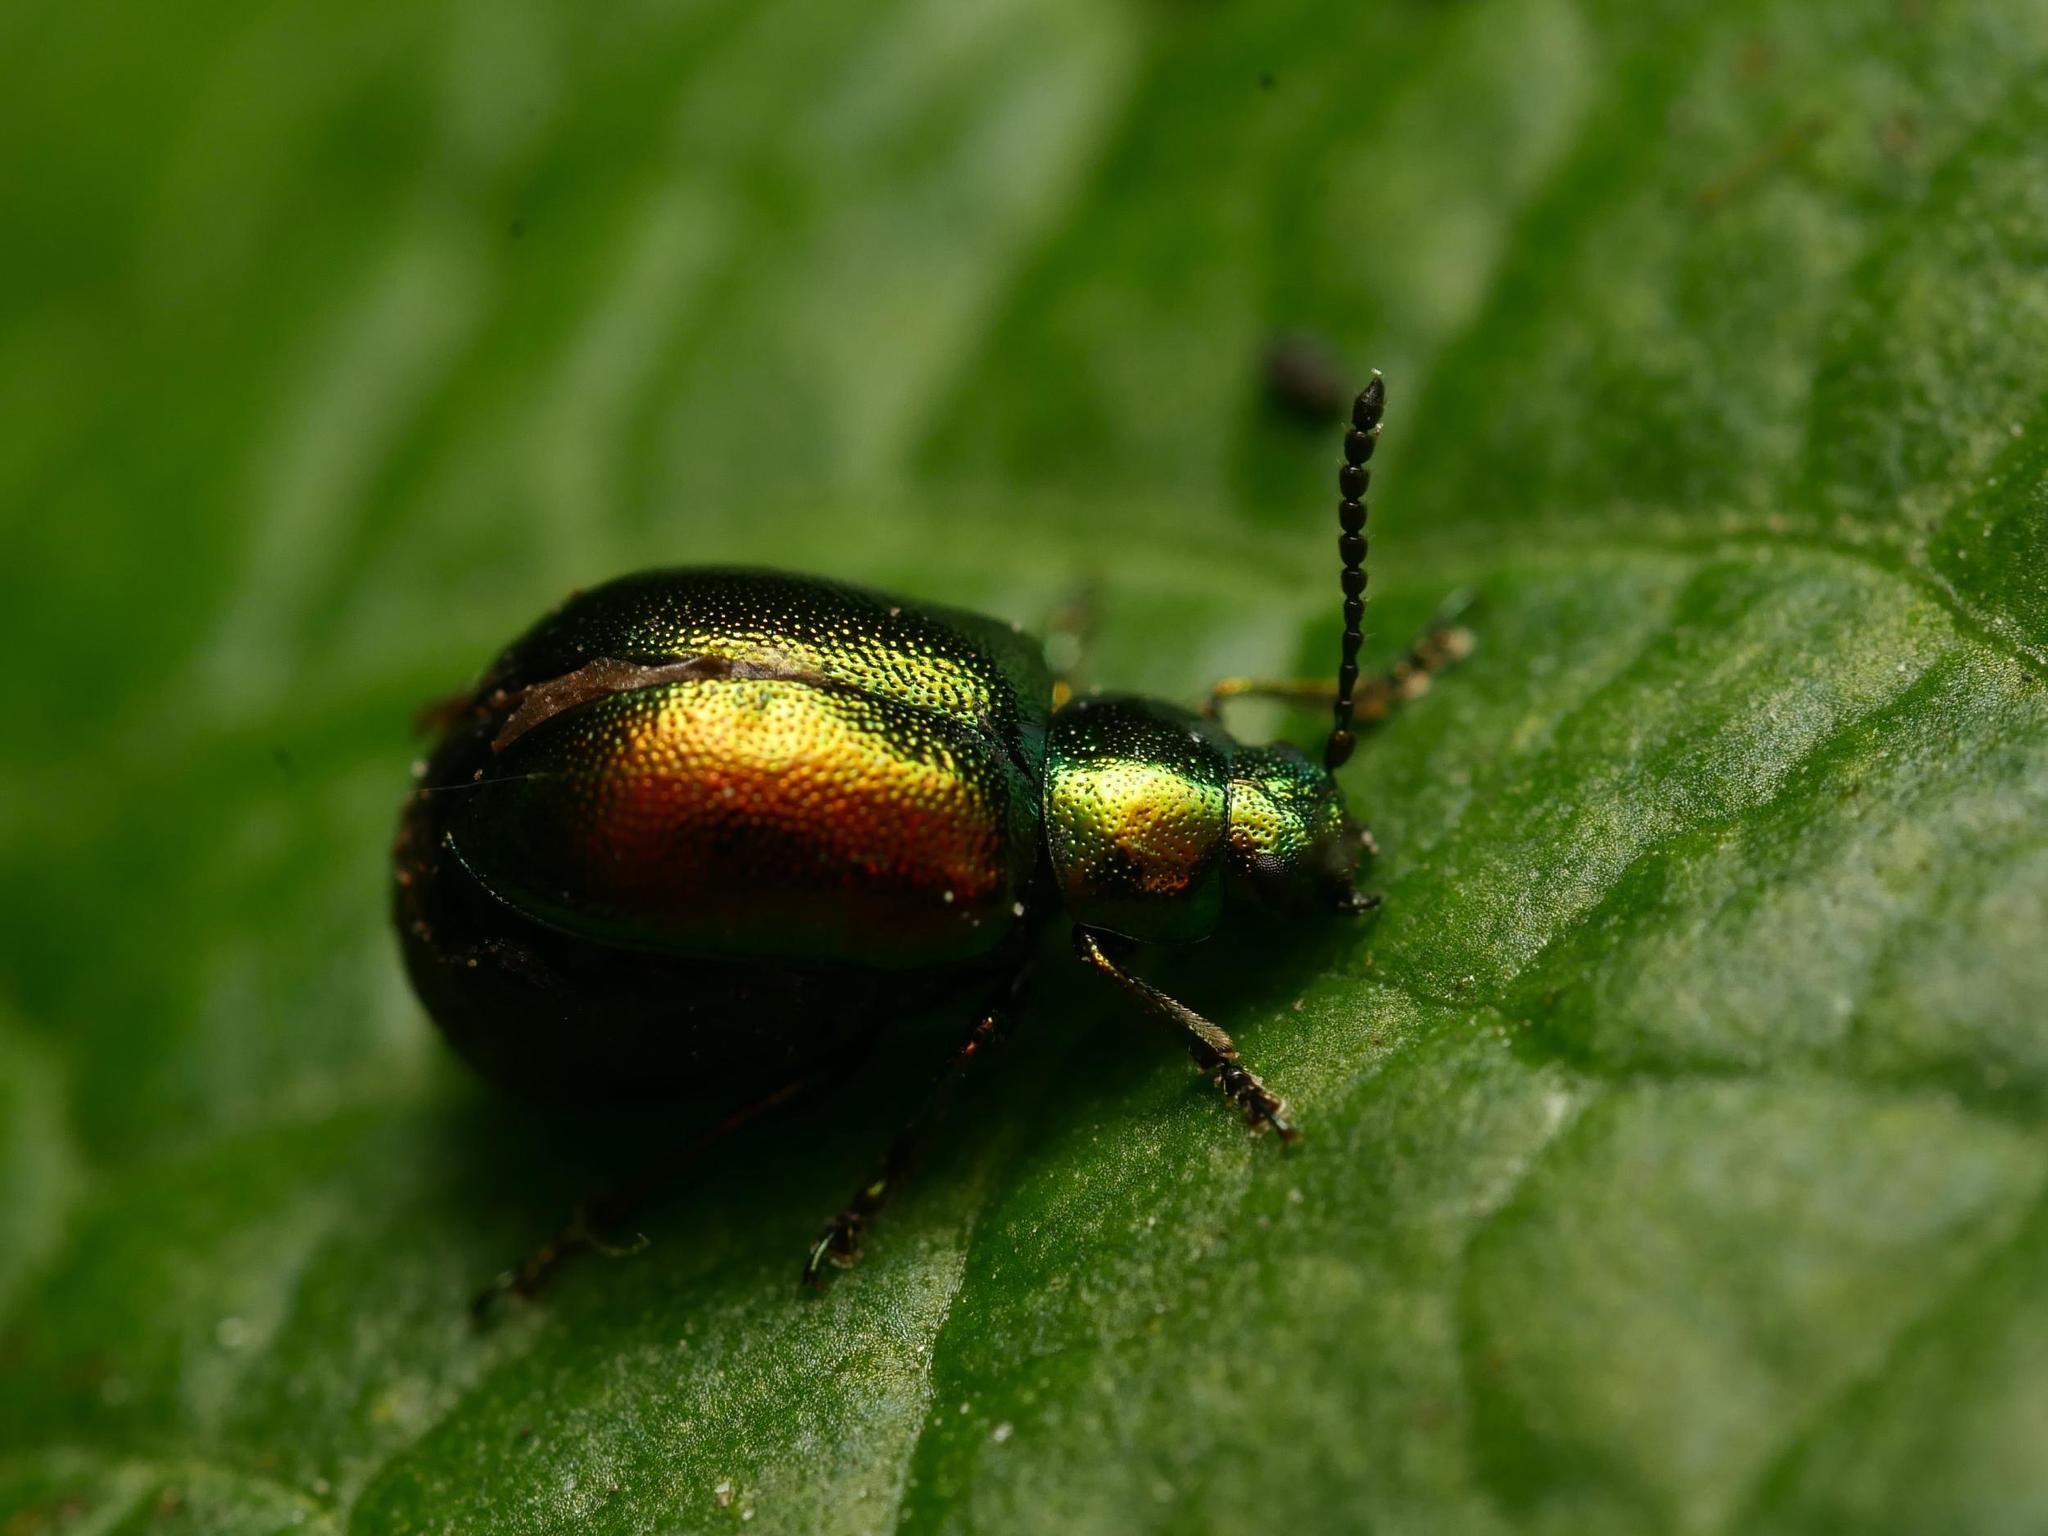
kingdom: Animalia
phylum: Arthropoda
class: Insecta
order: Coleoptera
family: Chrysomelidae
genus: Gastrophysa
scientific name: Gastrophysa viridula
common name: Green dock beetle
